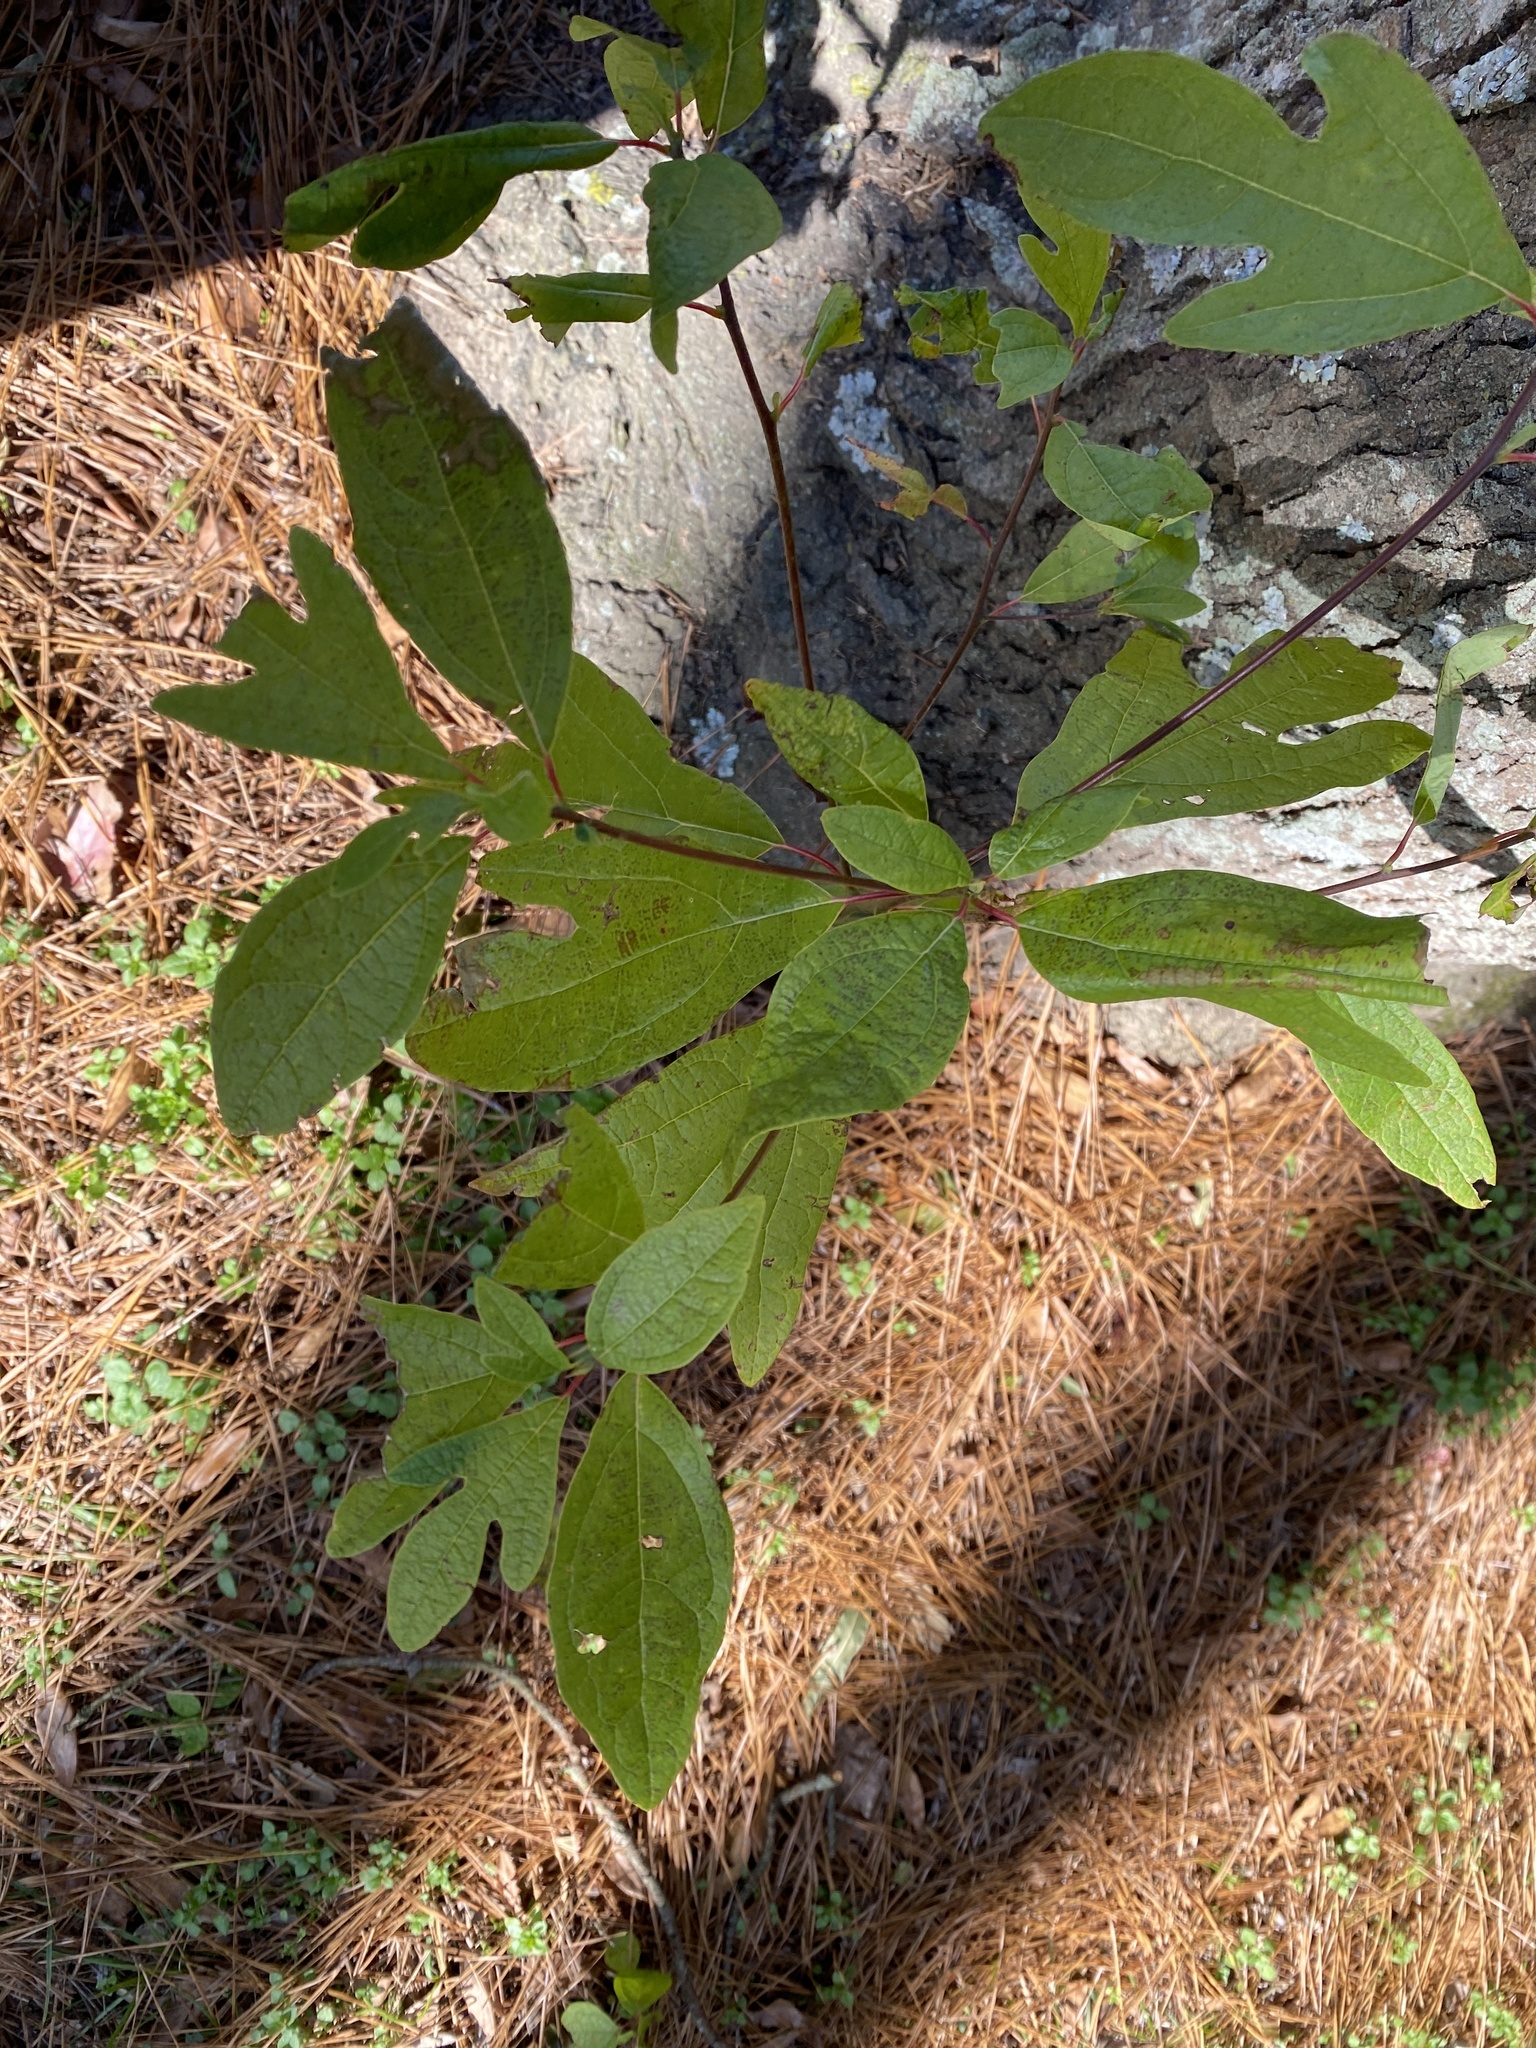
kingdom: Plantae
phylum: Tracheophyta
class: Magnoliopsida
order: Laurales
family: Lauraceae
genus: Sassafras
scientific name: Sassafras albidum
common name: Sassafras
